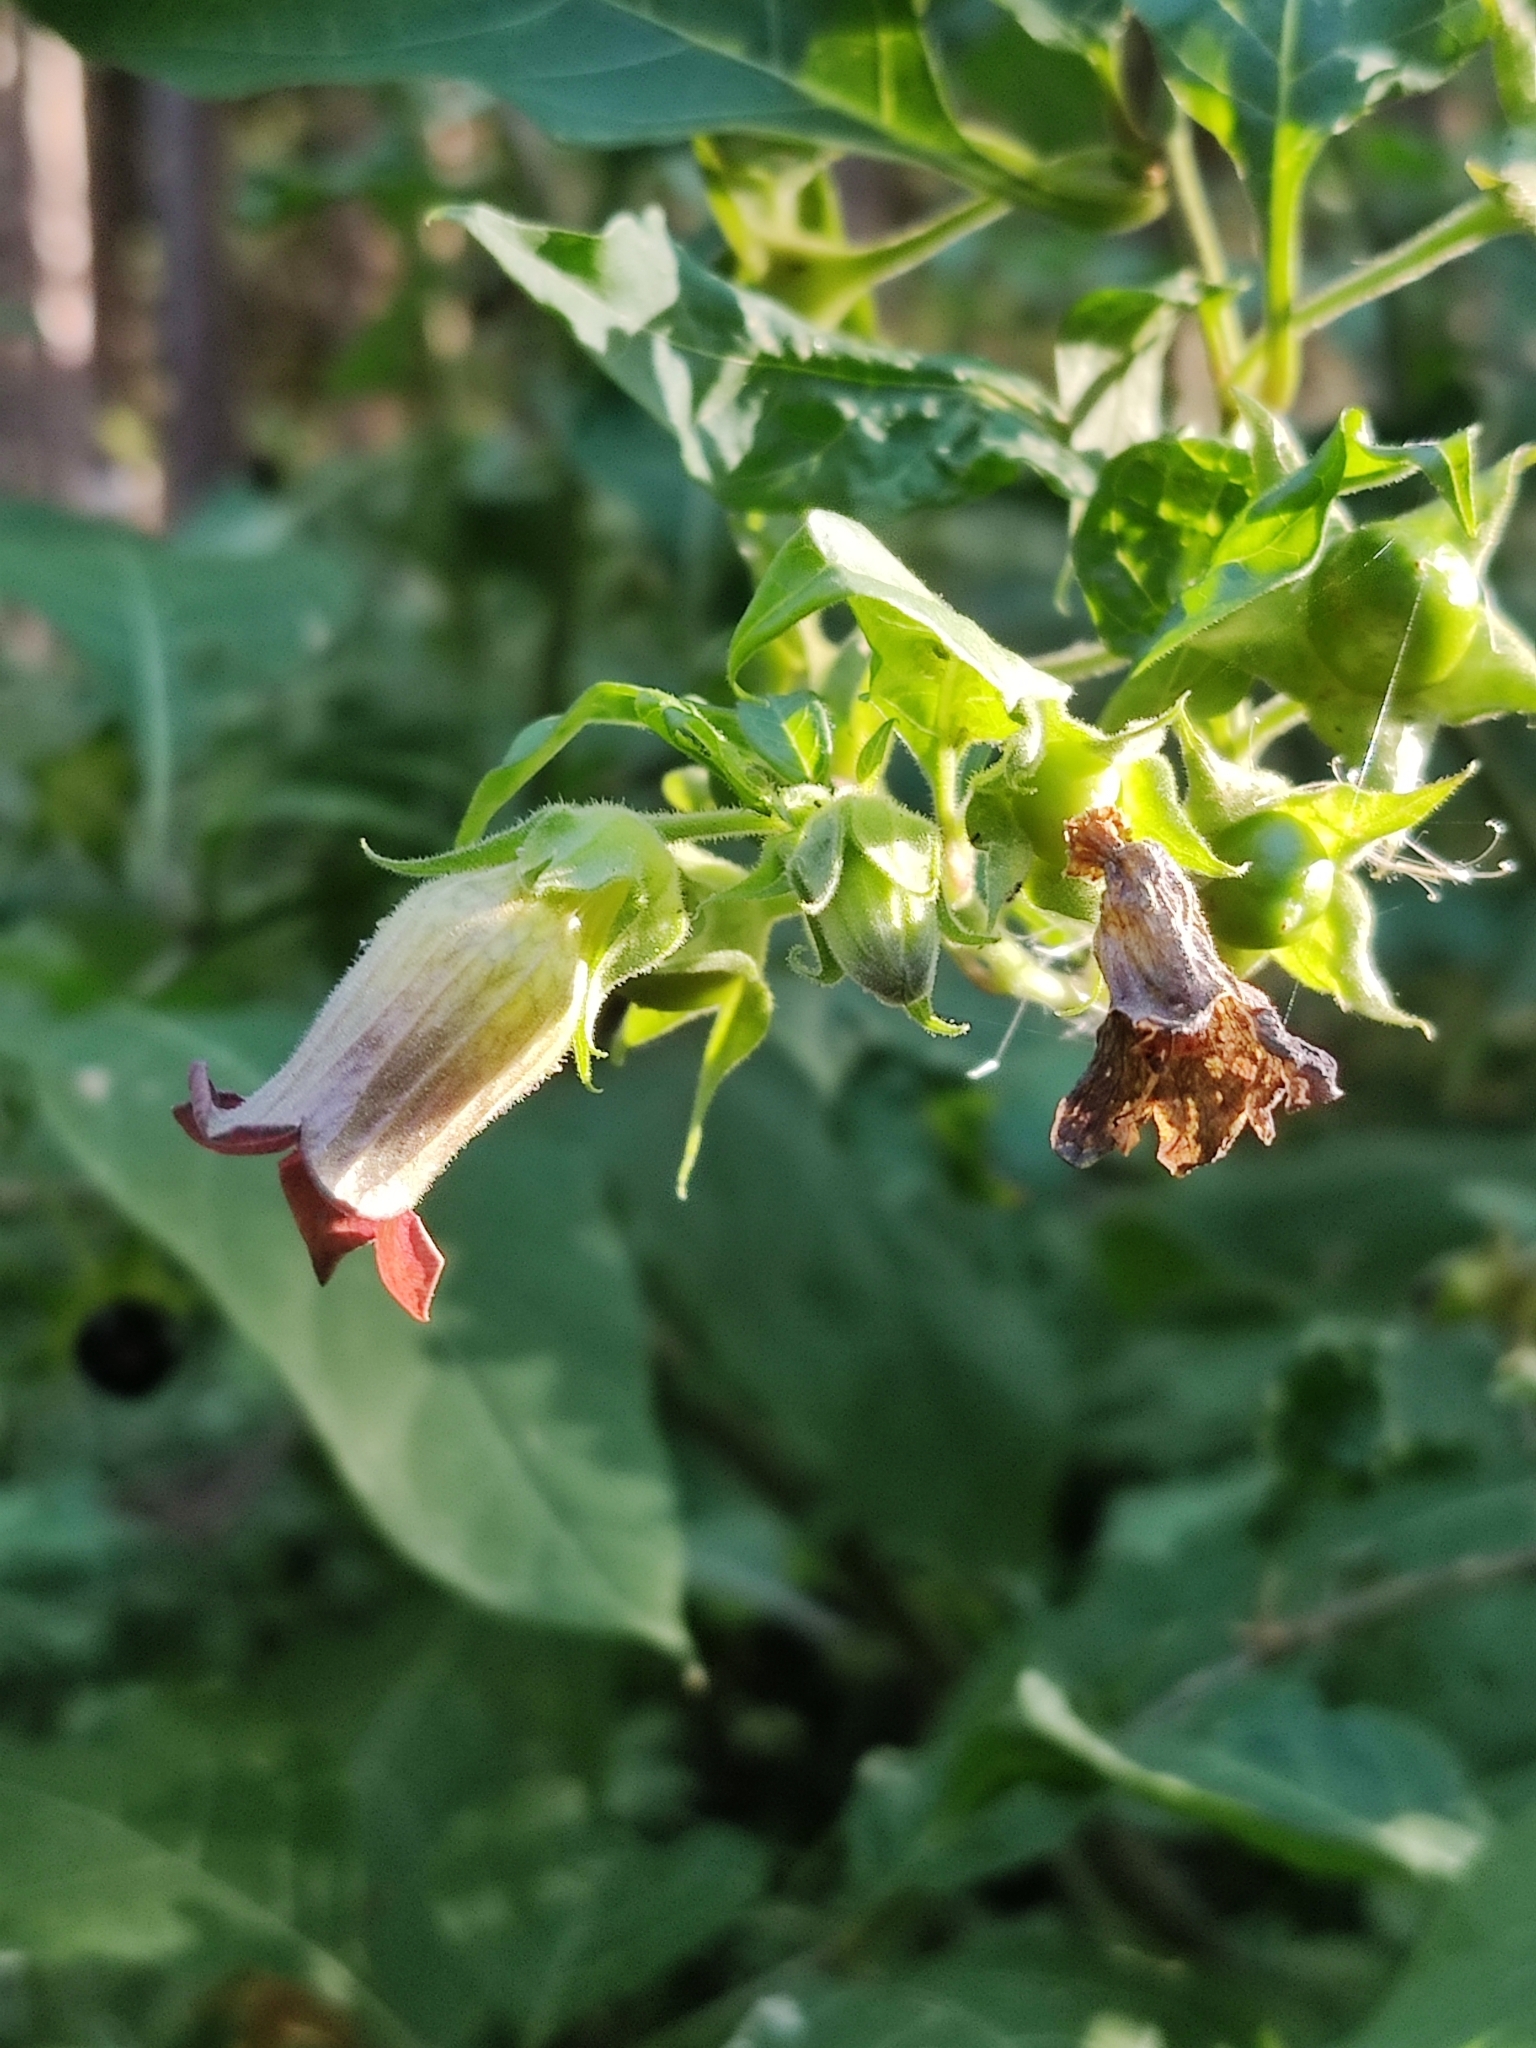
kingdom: Plantae
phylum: Tracheophyta
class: Magnoliopsida
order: Solanales
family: Solanaceae
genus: Atropa
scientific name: Atropa belladonna
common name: Deadly nightshade
